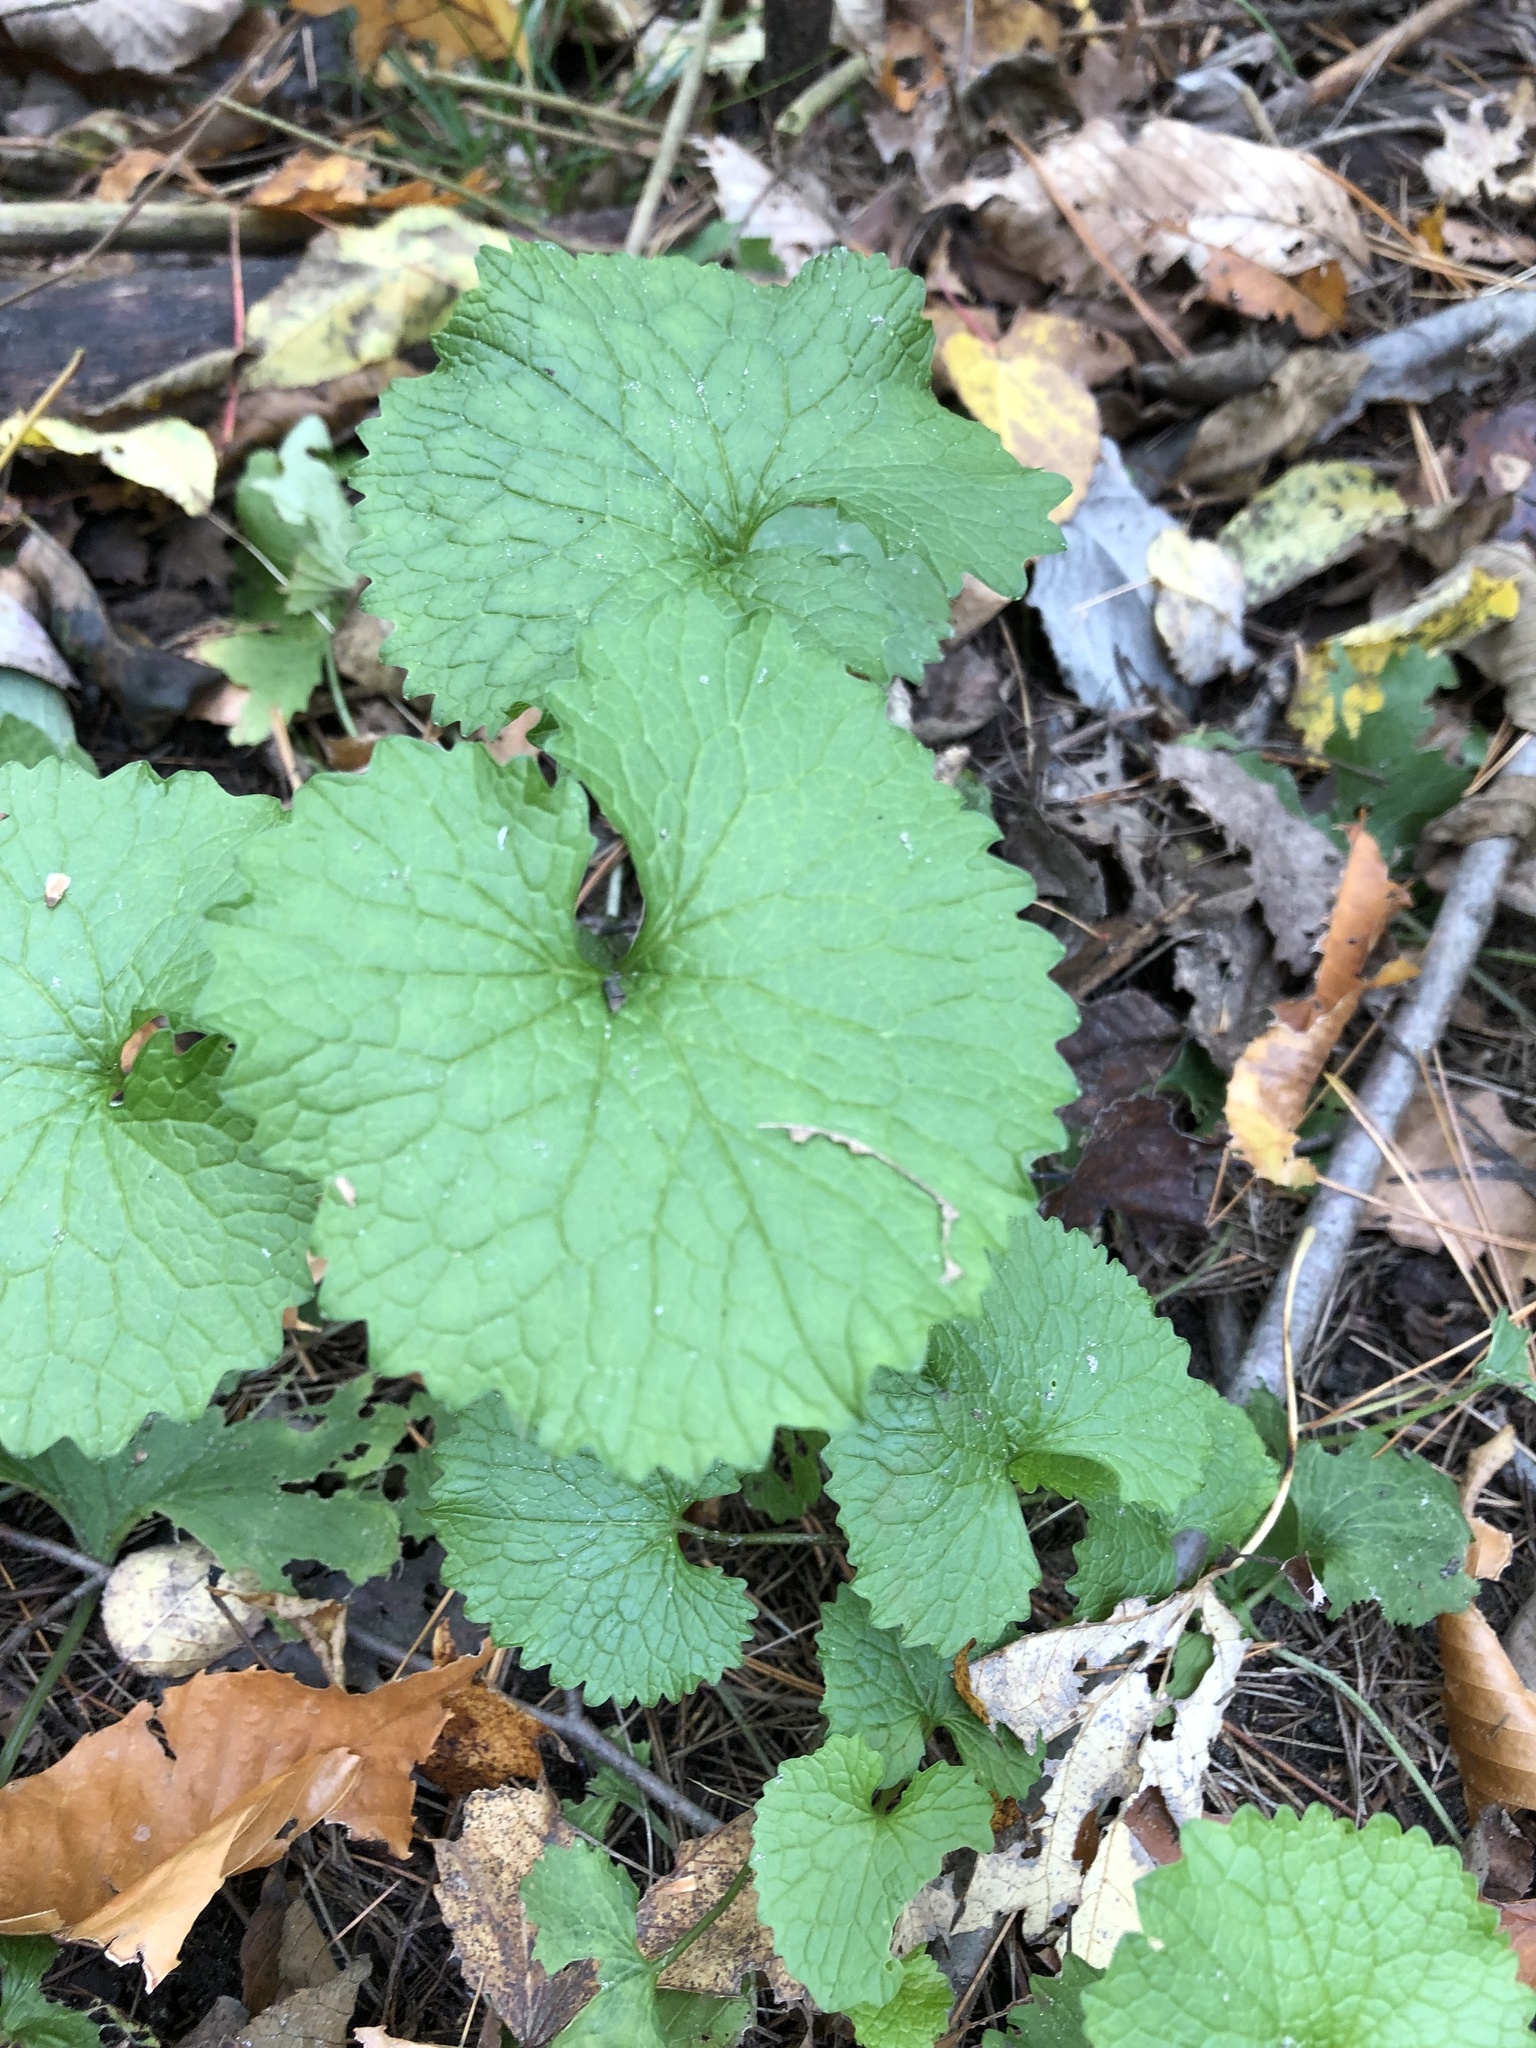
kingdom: Plantae
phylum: Tracheophyta
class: Magnoliopsida
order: Brassicales
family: Brassicaceae
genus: Alliaria
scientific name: Alliaria petiolata
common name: Garlic mustard
